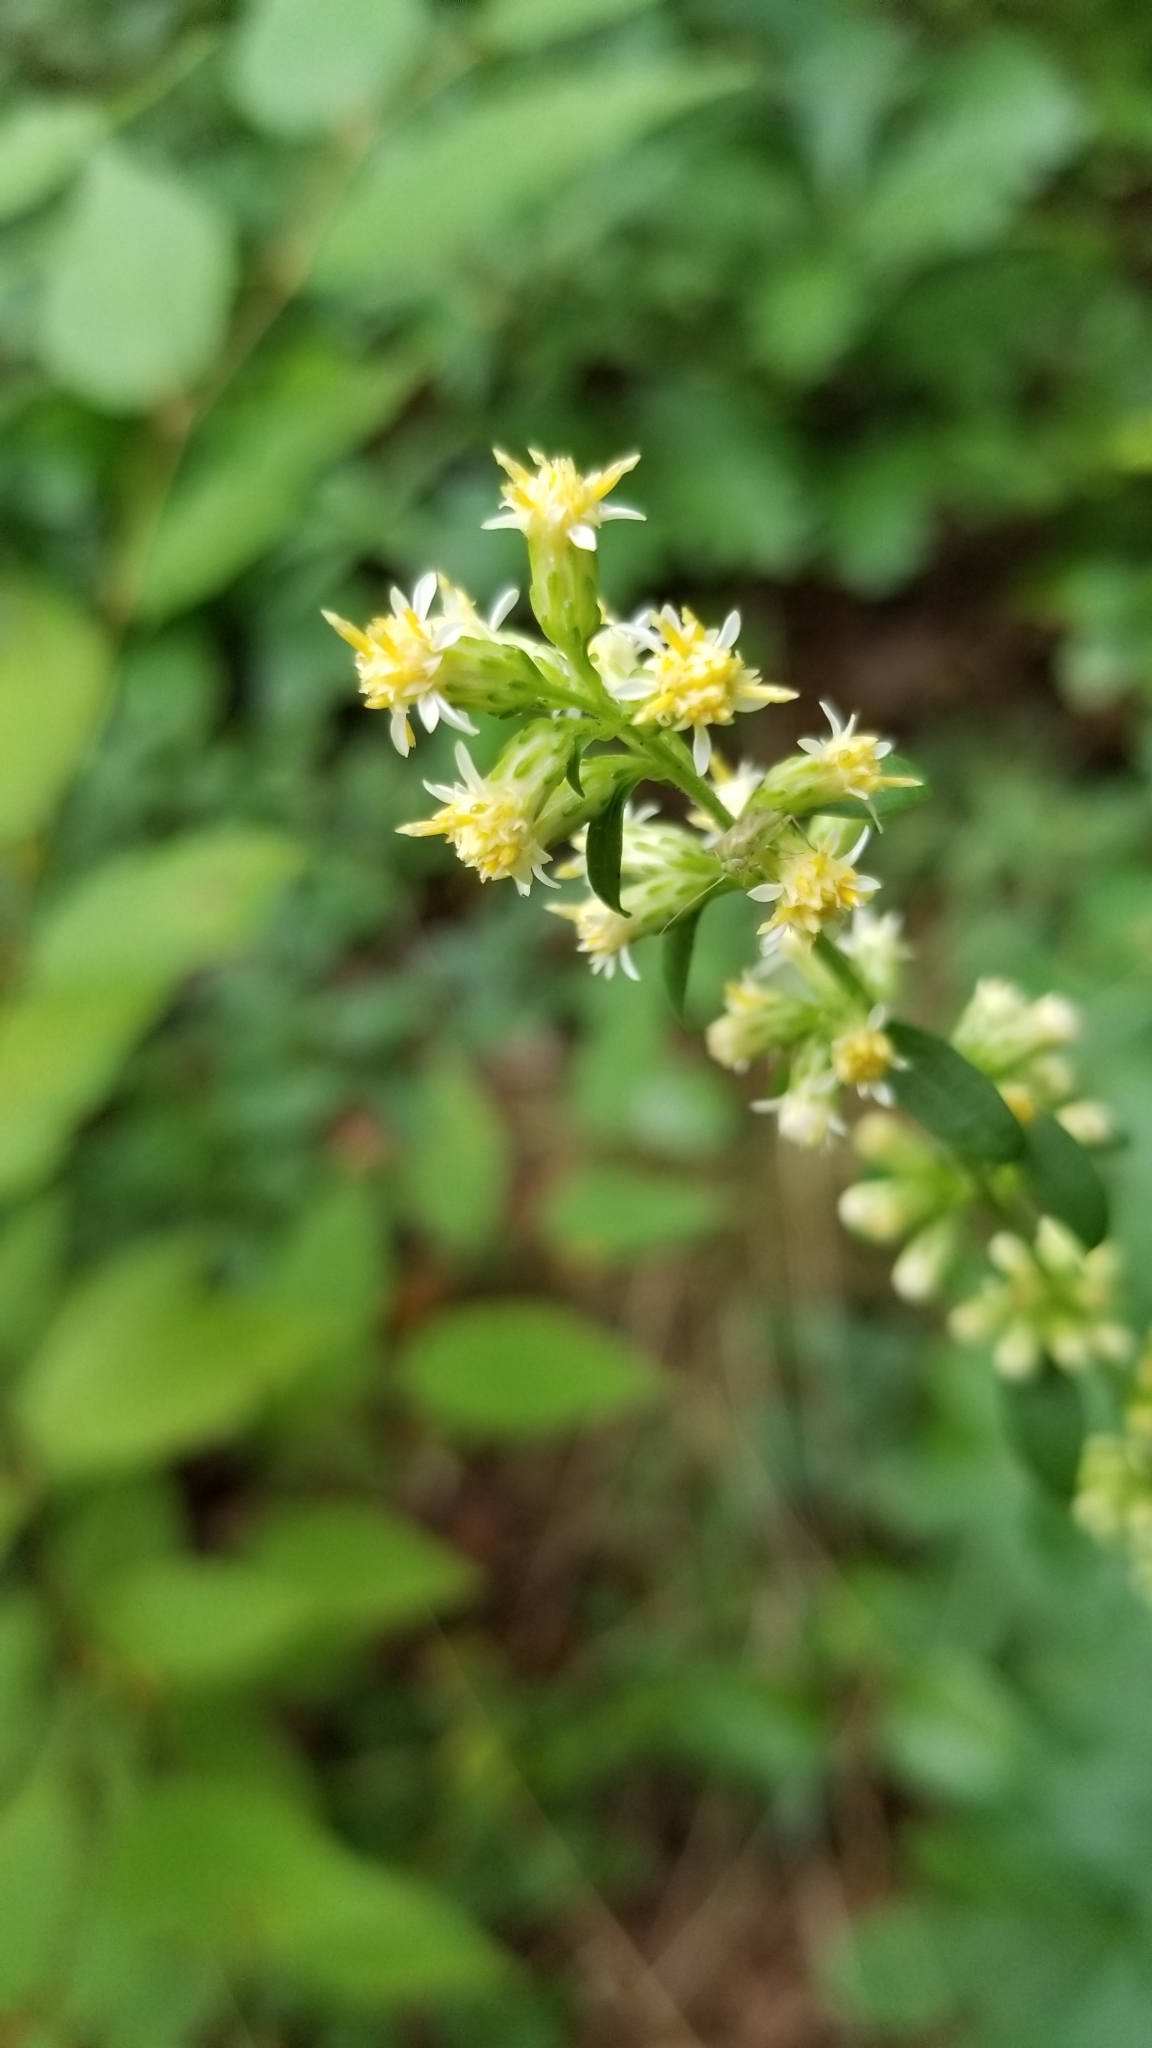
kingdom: Plantae
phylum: Tracheophyta
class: Magnoliopsida
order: Asterales
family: Asteraceae
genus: Solidago
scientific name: Solidago bicolor
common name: Silverrod
